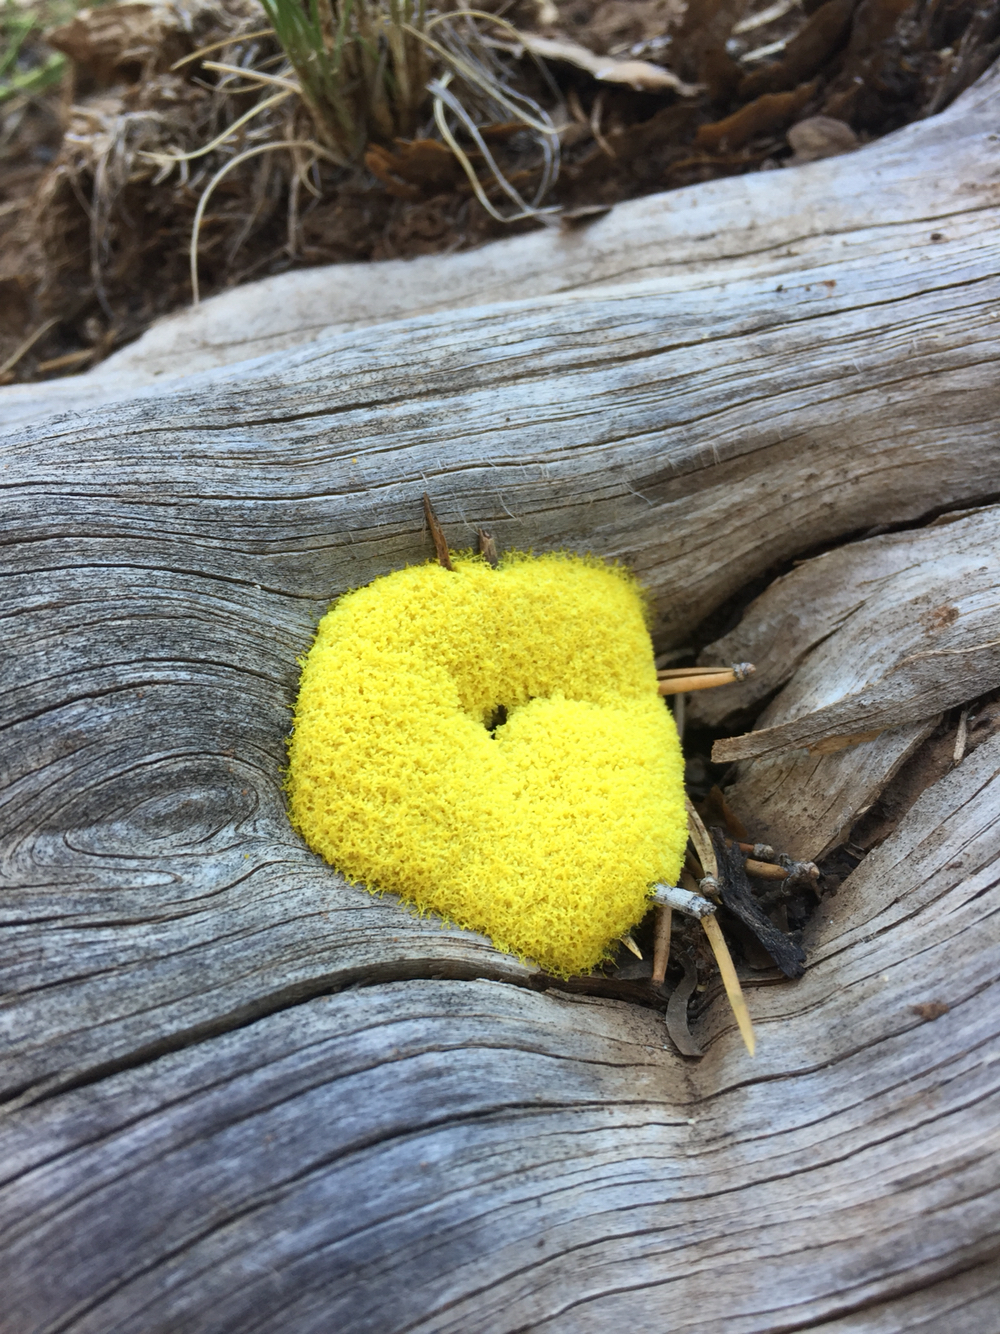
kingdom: Protozoa
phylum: Mycetozoa
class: Myxomycetes
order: Physarales
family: Physaraceae
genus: Fuligo
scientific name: Fuligo septica
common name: Dog vomit slime mold
